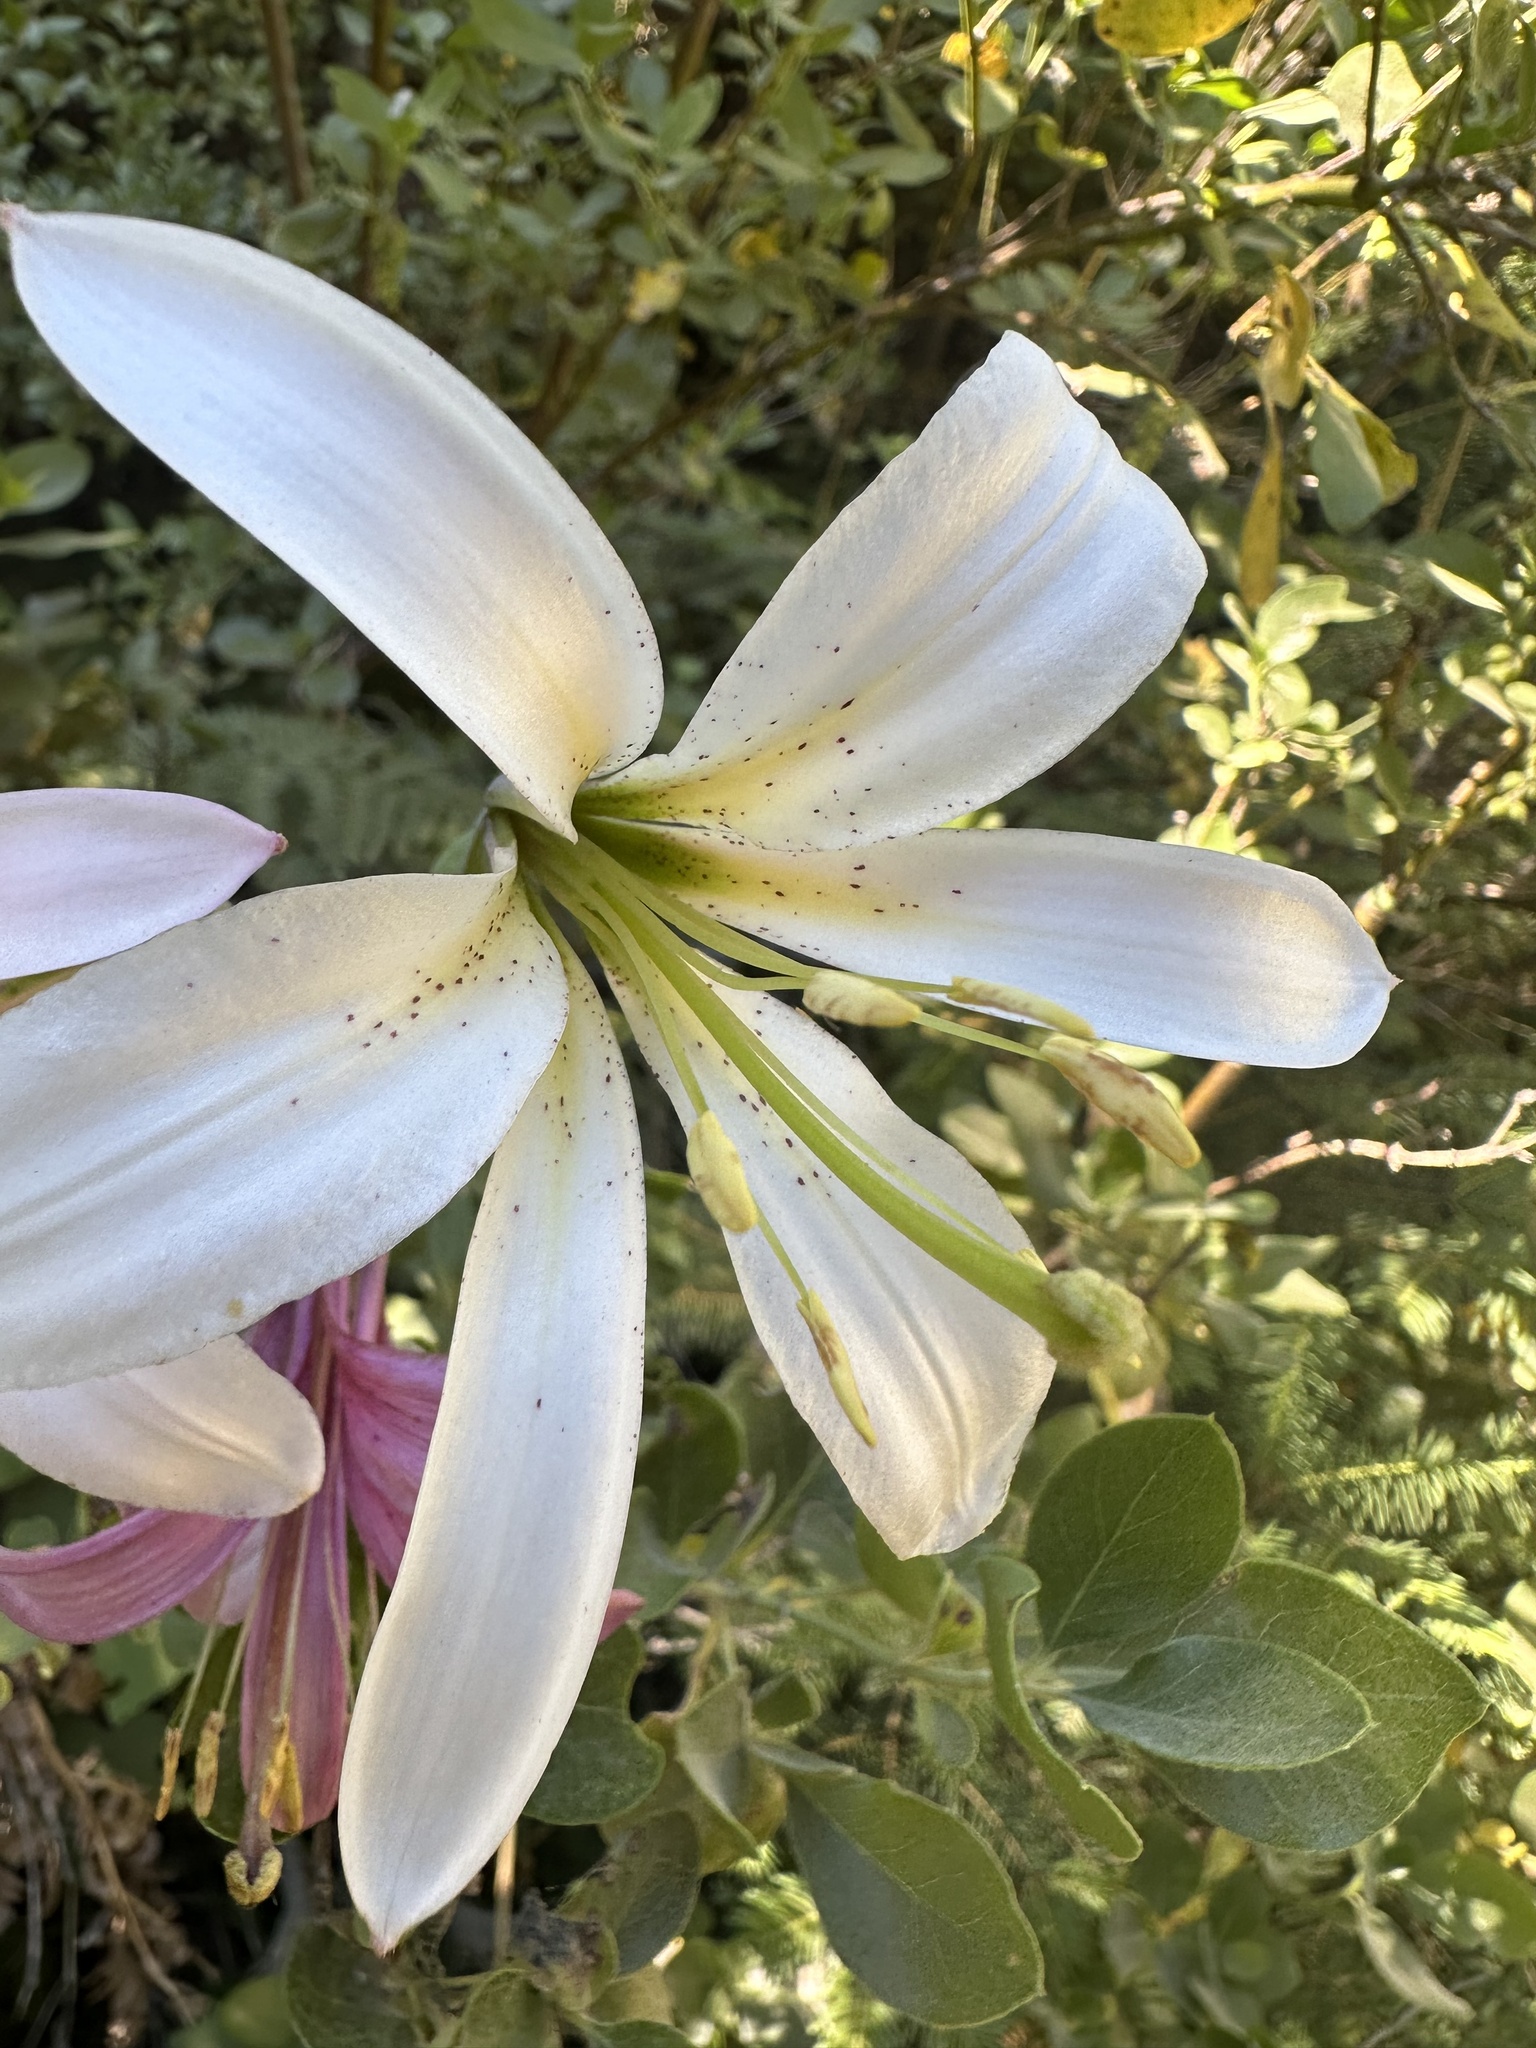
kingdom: Plantae
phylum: Tracheophyta
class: Liliopsida
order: Liliales
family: Liliaceae
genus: Lilium
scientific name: Lilium washingtonianum
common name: Washington lily
